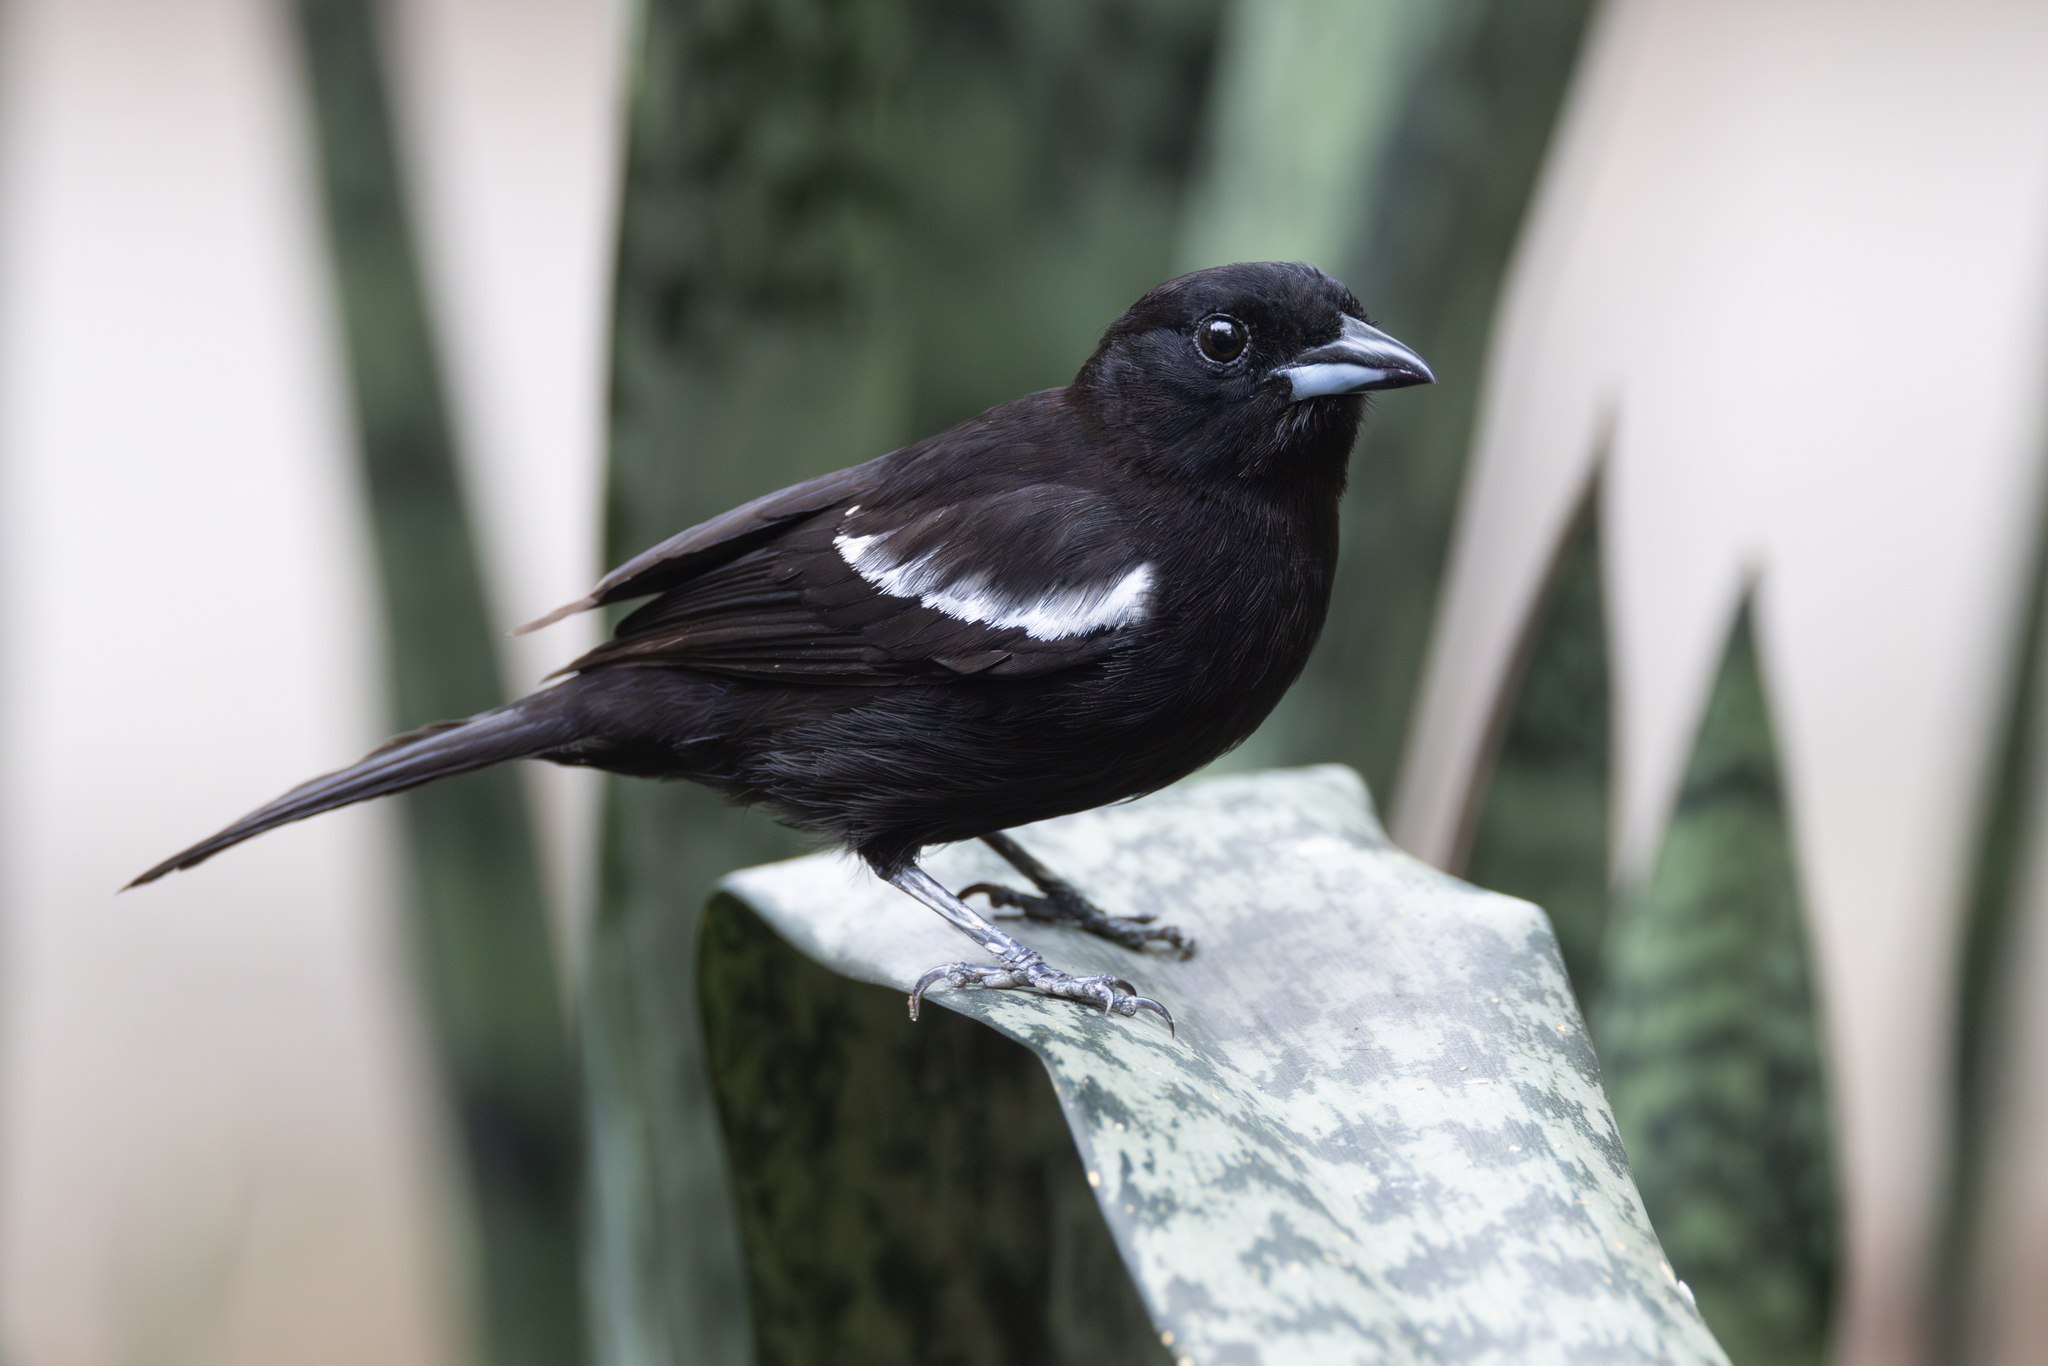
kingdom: Animalia
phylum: Chordata
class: Aves
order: Passeriformes
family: Thraupidae
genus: Loriotus
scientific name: Loriotus luctuosus
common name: White-shouldered tanager
